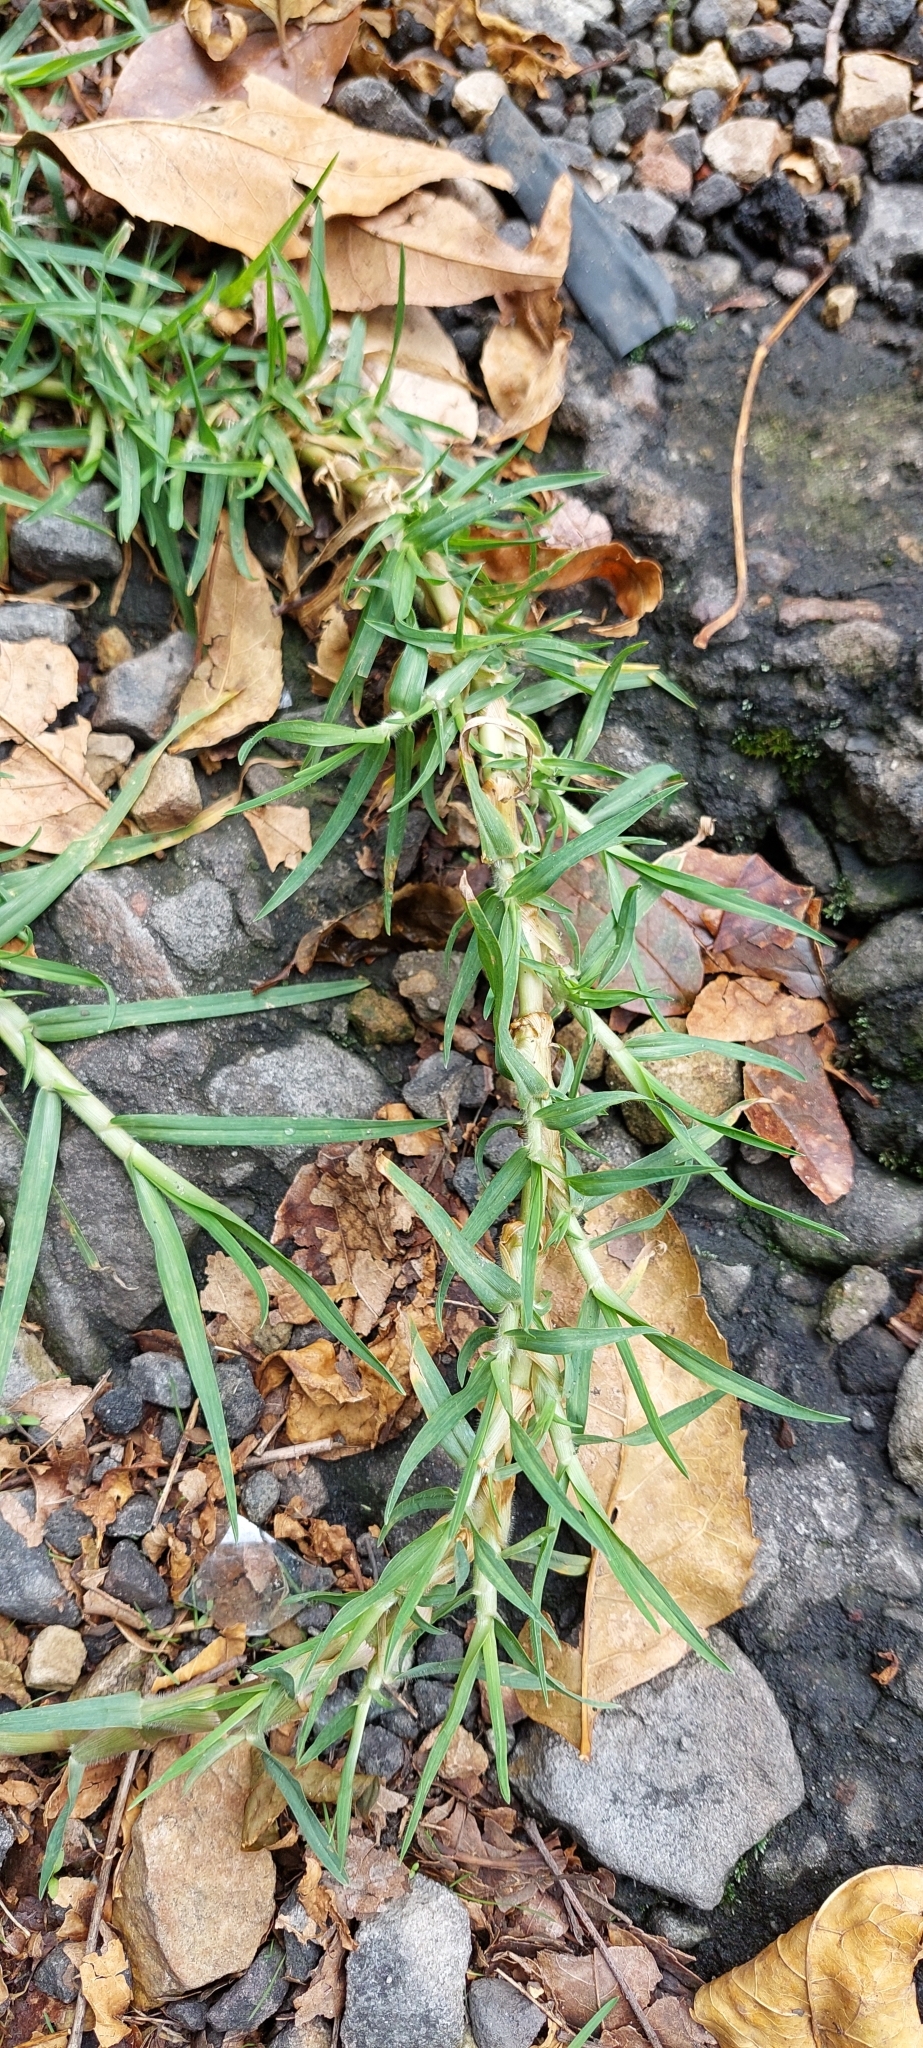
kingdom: Plantae
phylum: Tracheophyta
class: Liliopsida
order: Poales
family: Poaceae
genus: Cenchrus
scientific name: Cenchrus clandestinus
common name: Kikuyugrass
